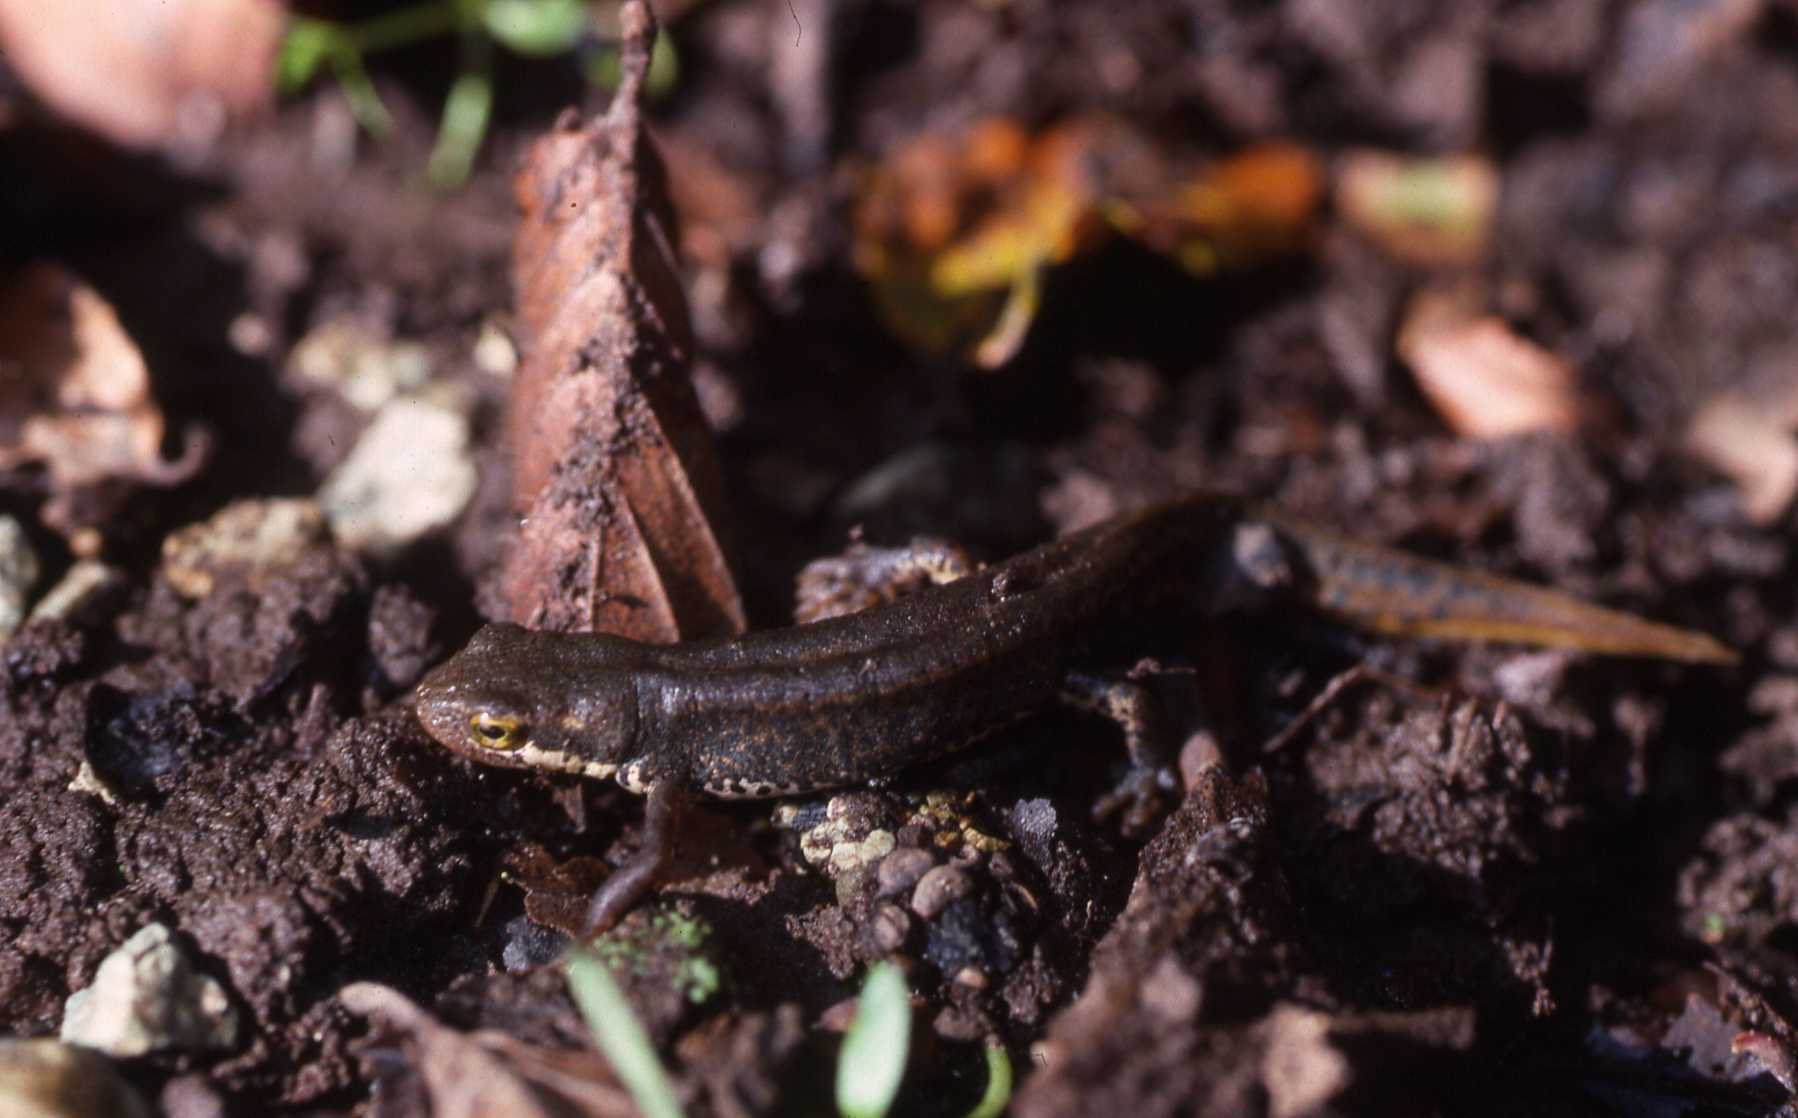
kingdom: Animalia
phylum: Chordata
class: Amphibia
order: Caudata
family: Salamandridae
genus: Lissotriton
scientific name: Lissotriton italicus
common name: Italian newt
